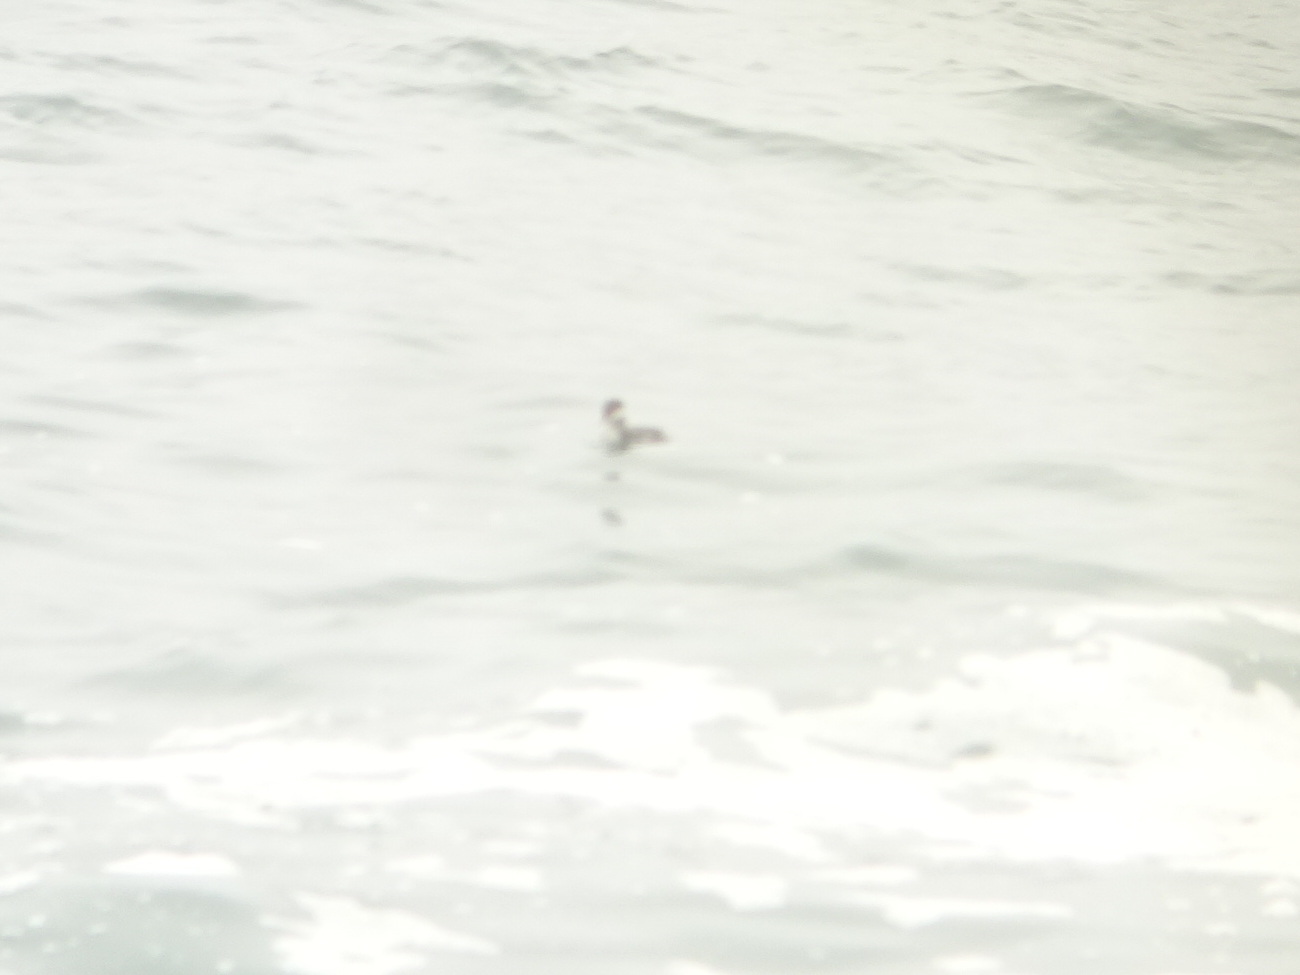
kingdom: Animalia
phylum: Chordata
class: Aves
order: Podicipediformes
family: Podicipedidae
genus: Podiceps
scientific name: Podiceps auritus
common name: Horned grebe
